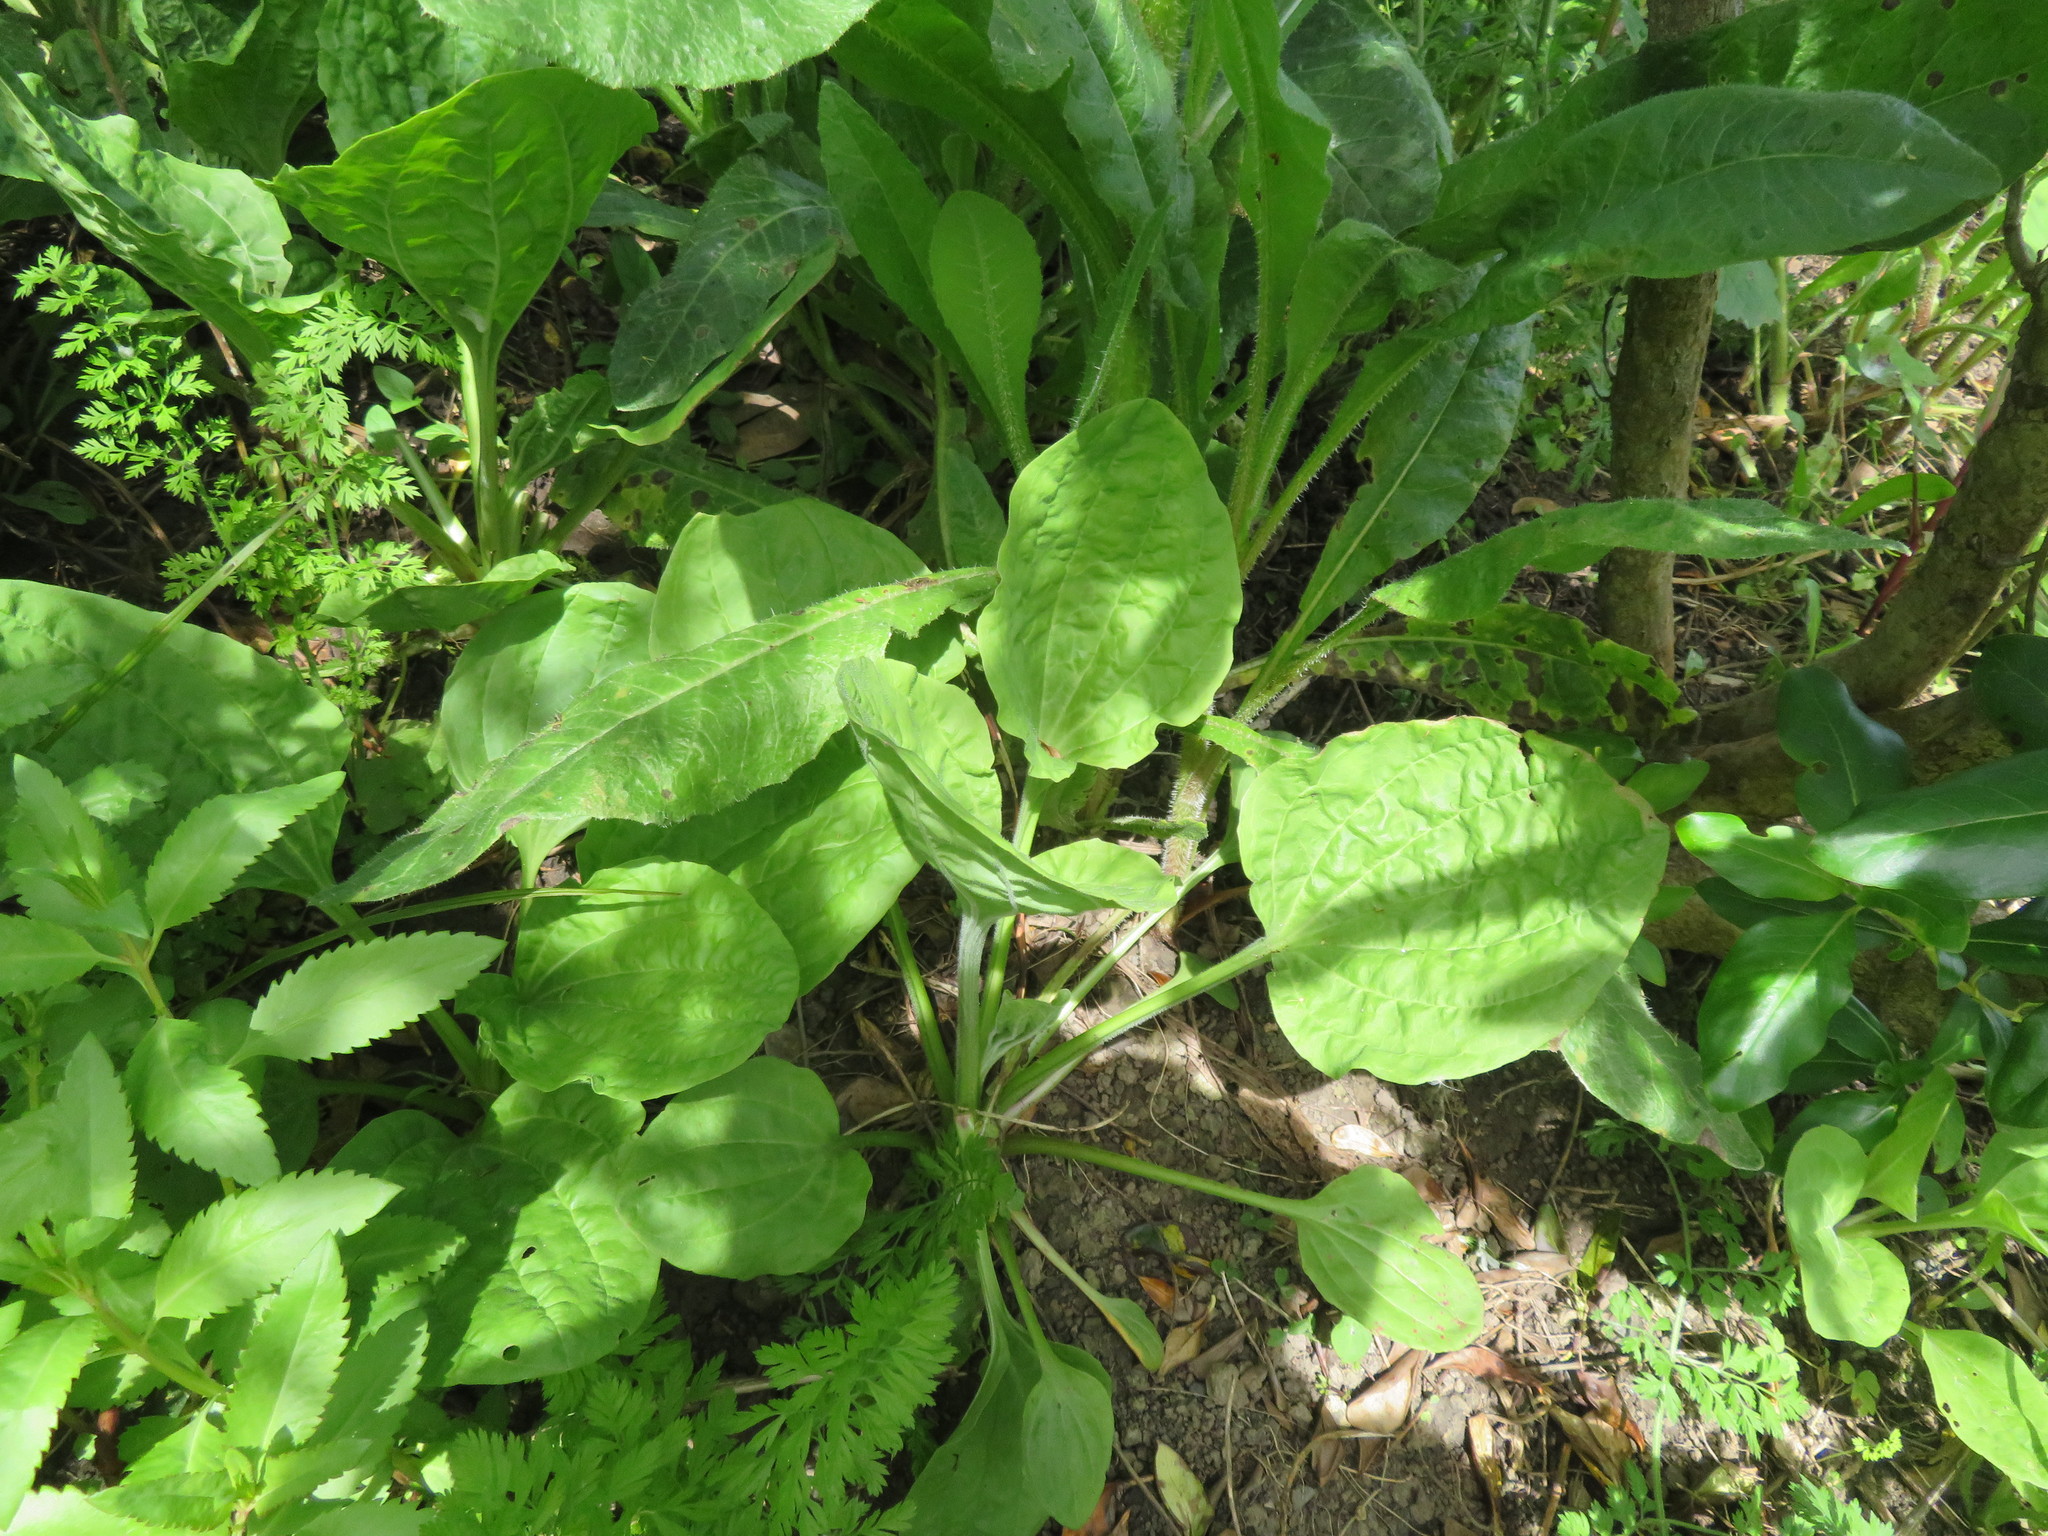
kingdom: Plantae
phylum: Tracheophyta
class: Magnoliopsida
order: Lamiales
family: Plantaginaceae
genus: Plantago
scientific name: Plantago major
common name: Common plantain
